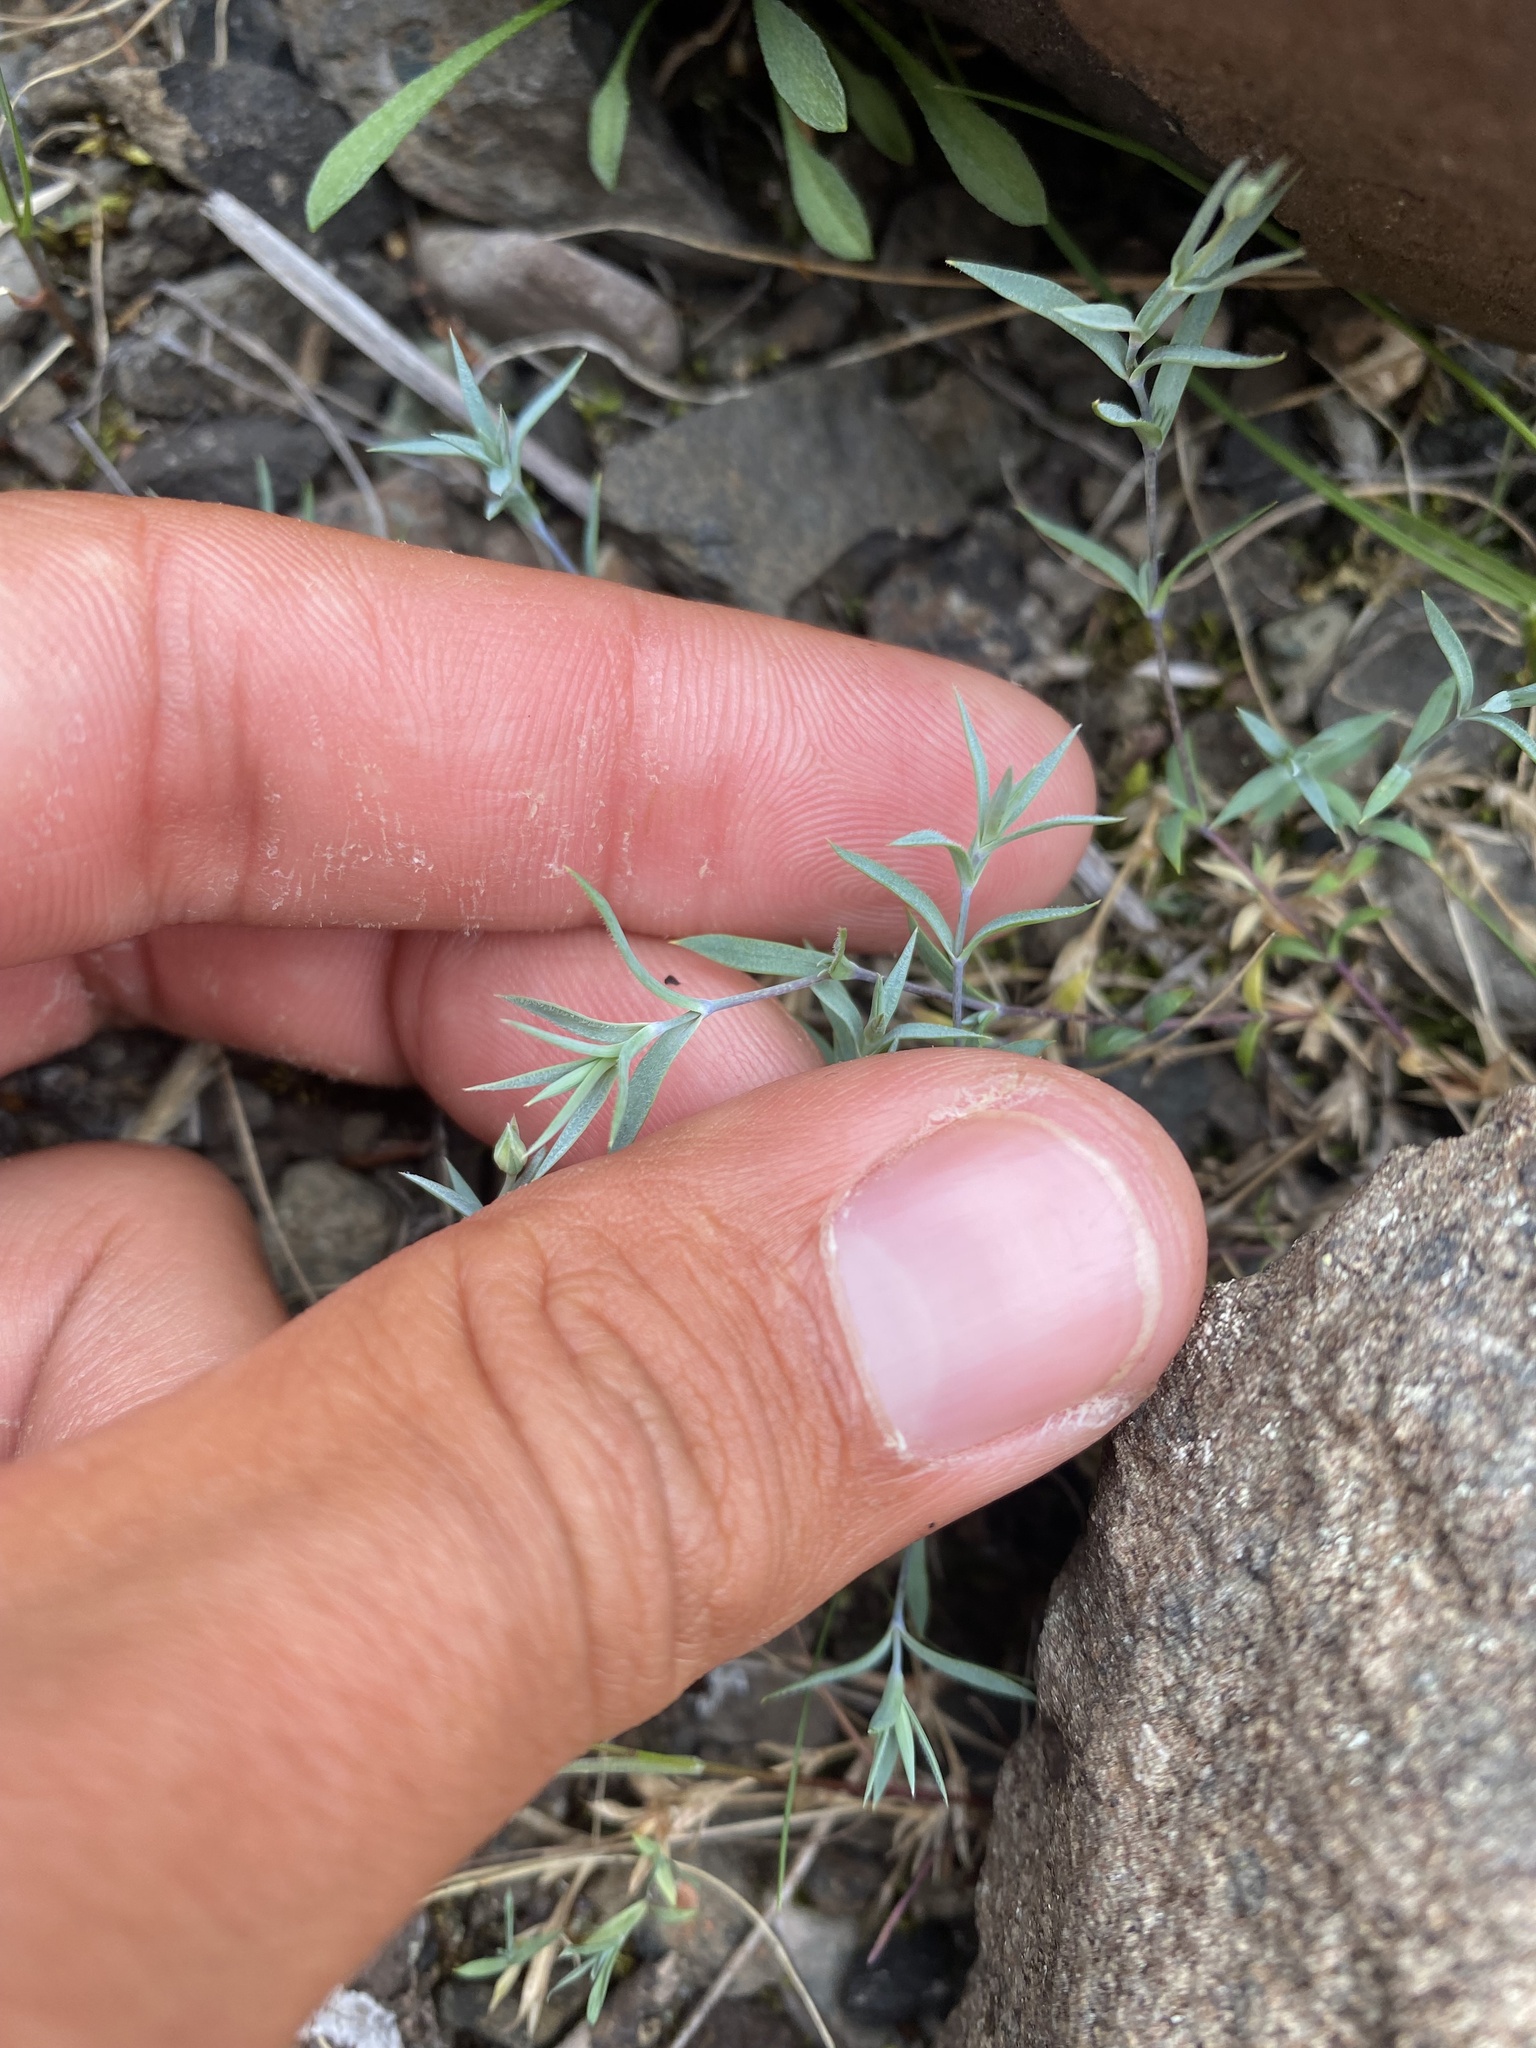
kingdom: Plantae
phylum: Tracheophyta
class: Magnoliopsida
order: Caryophyllales
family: Caryophyllaceae
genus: Dianthus
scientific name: Dianthus repens
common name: Northern pink
